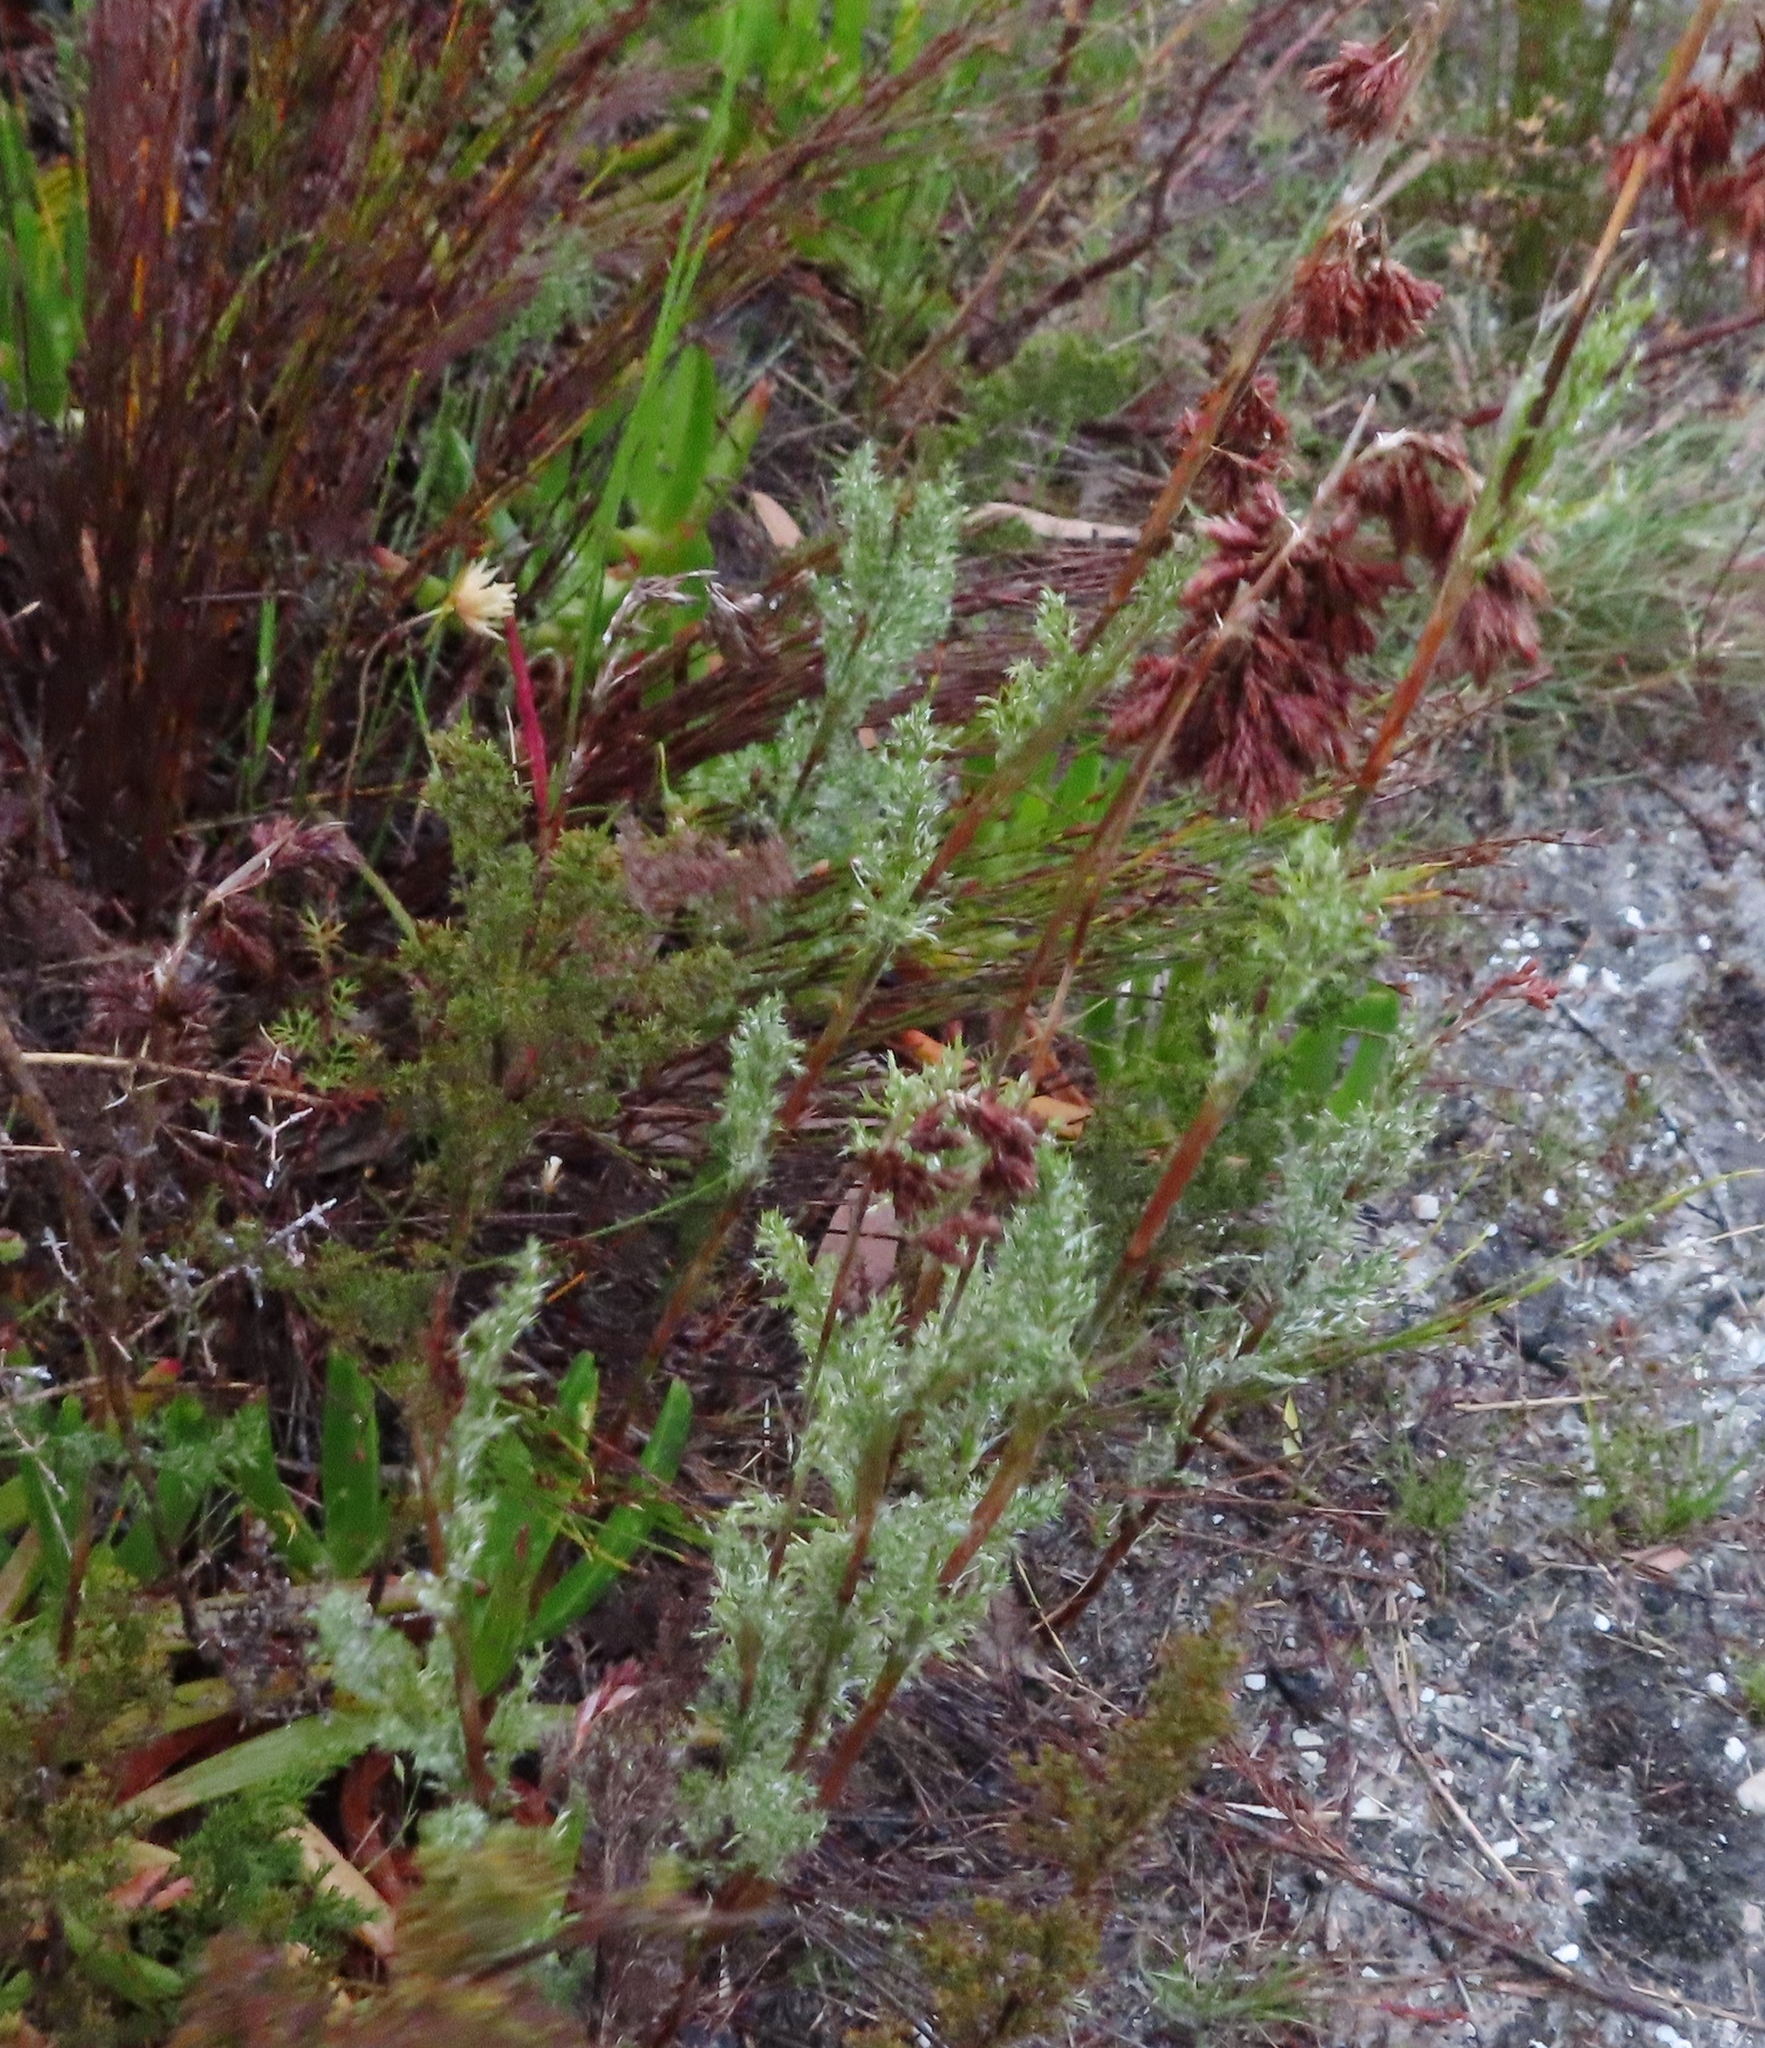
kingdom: Plantae
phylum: Tracheophyta
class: Liliopsida
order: Poales
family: Restionaceae
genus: Thamnochortus
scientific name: Thamnochortus fruticosus
